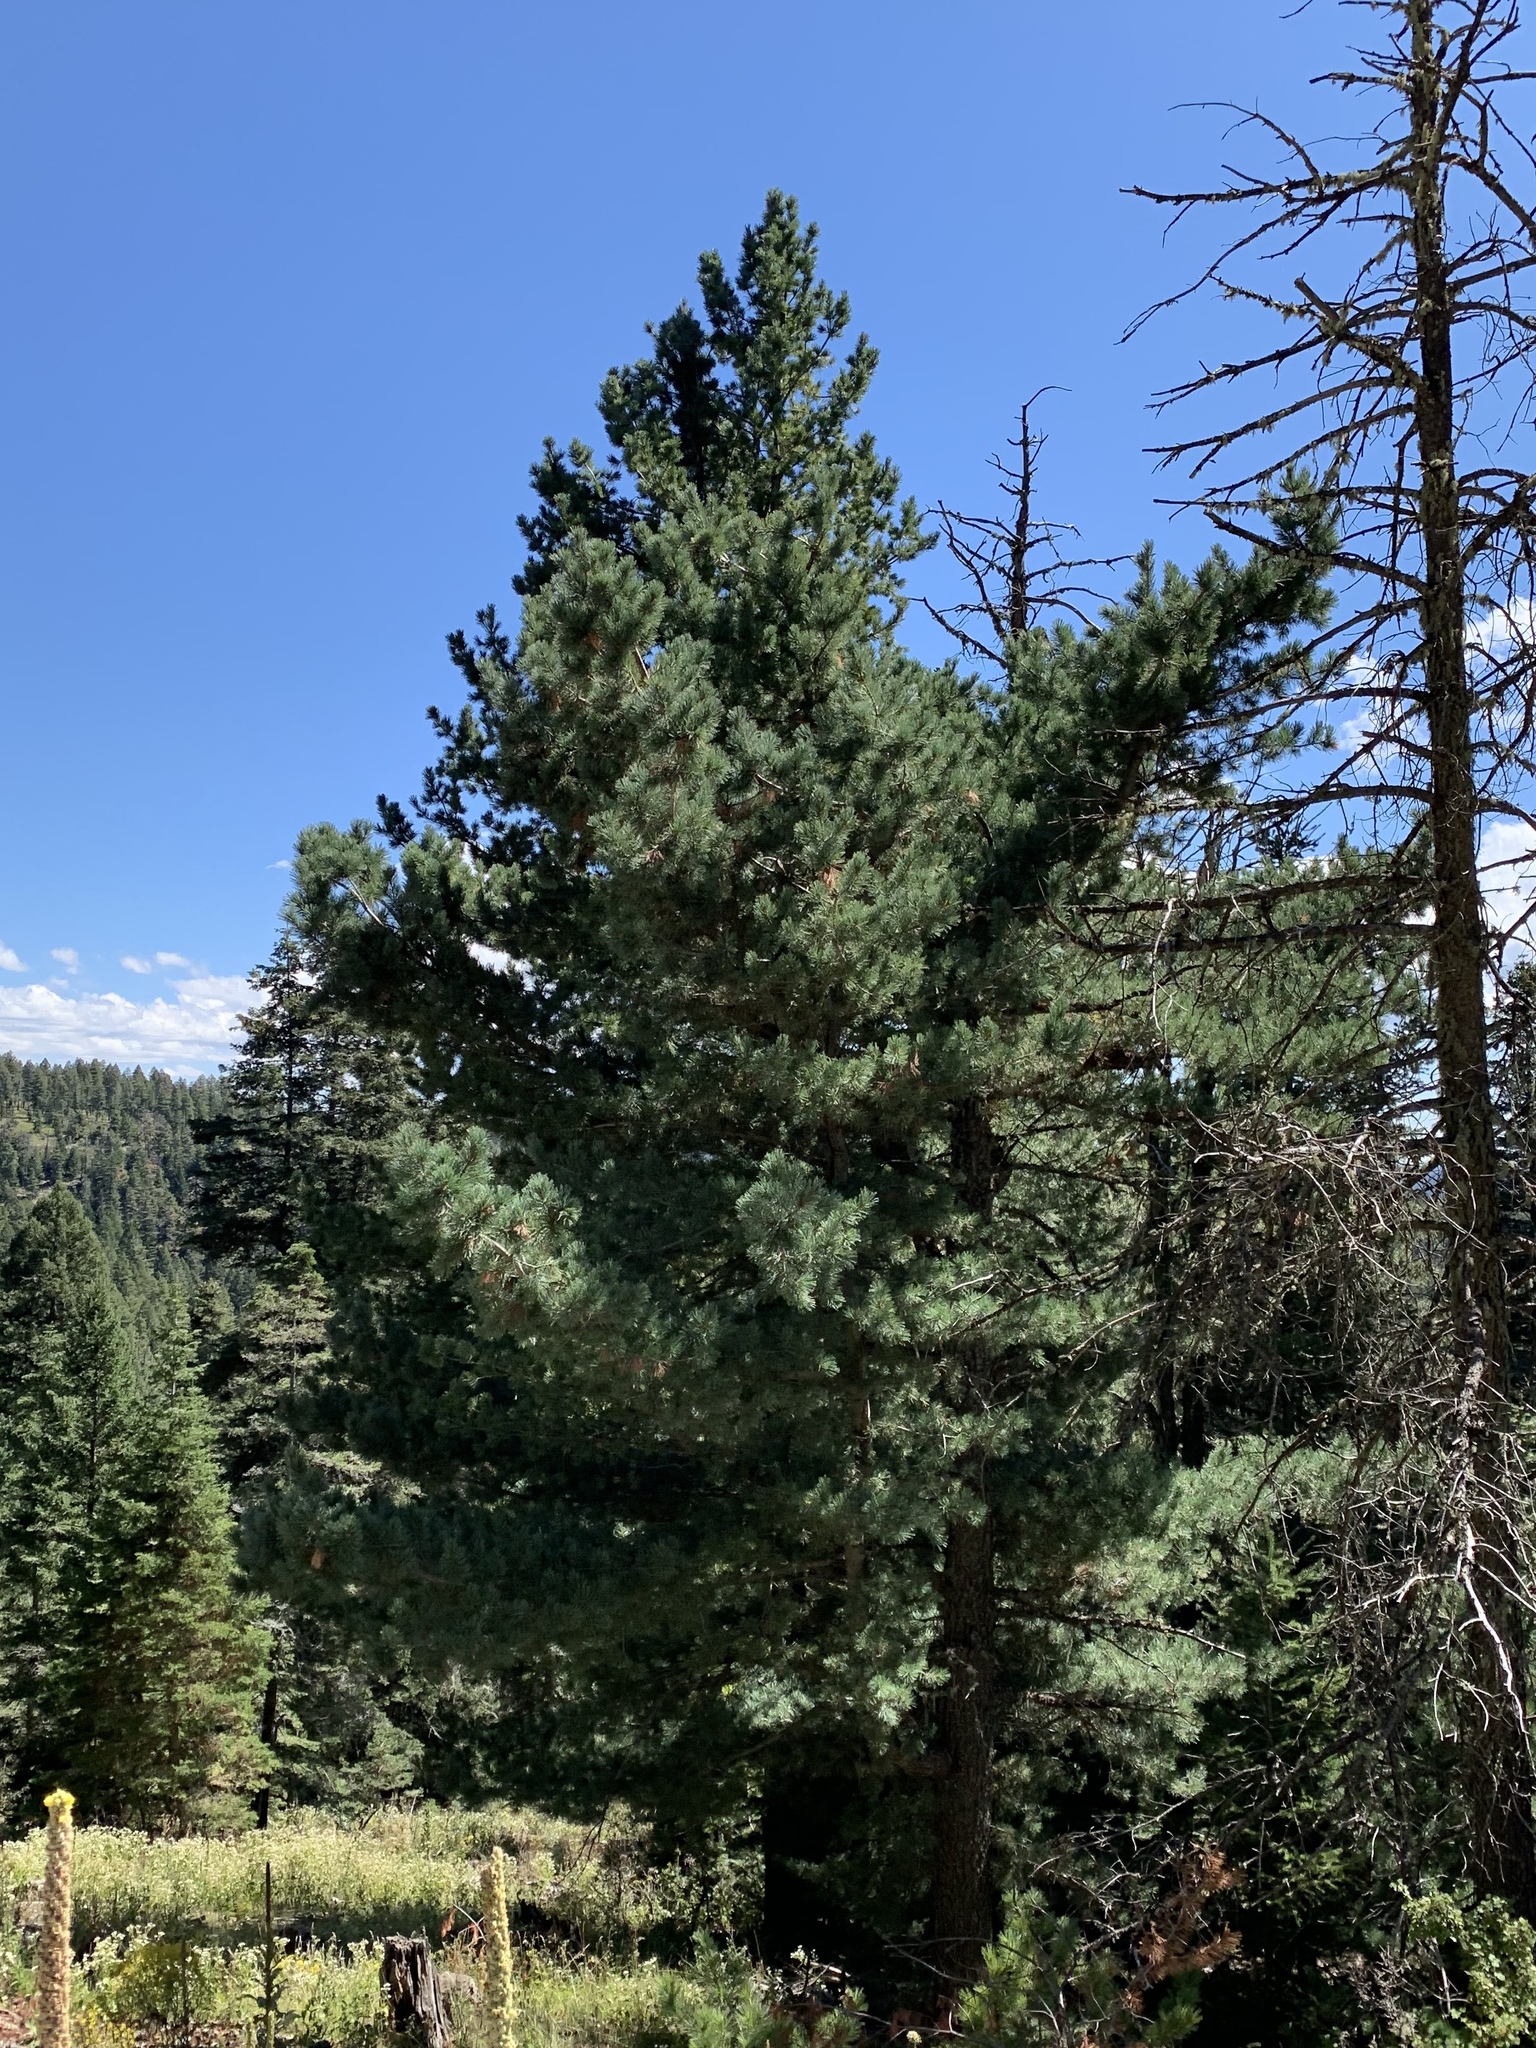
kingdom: Plantae
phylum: Tracheophyta
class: Pinopsida
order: Pinales
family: Pinaceae
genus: Pinus
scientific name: Pinus strobiformis
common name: Southwestern white pine
